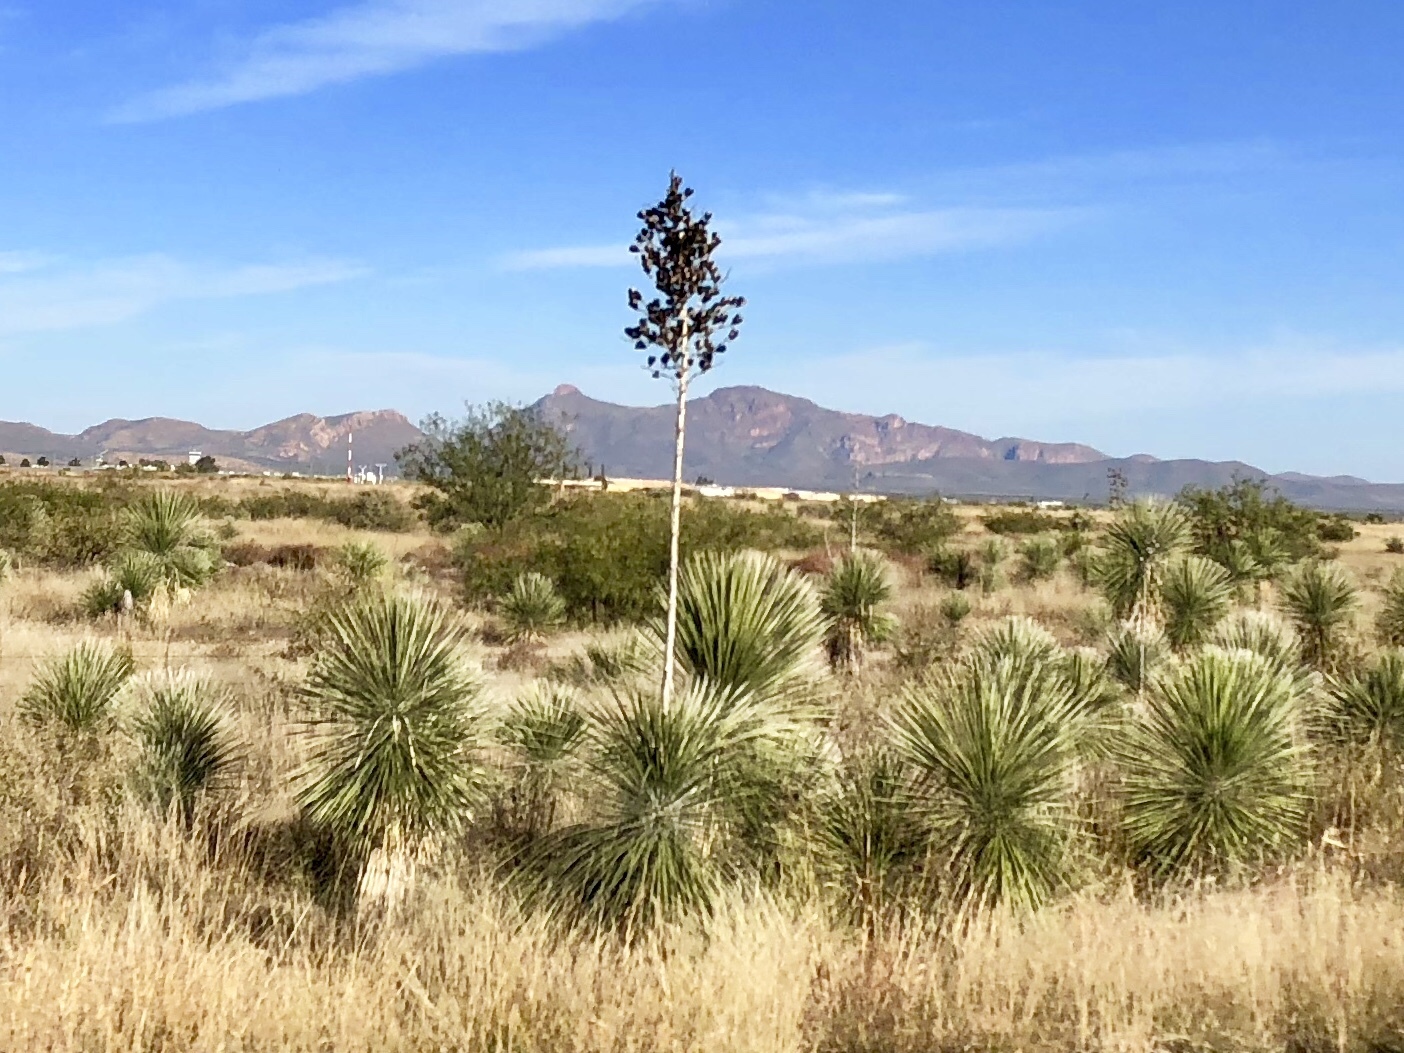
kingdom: Plantae
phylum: Tracheophyta
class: Liliopsida
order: Asparagales
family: Asparagaceae
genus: Yucca
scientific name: Yucca elata
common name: Palmella
